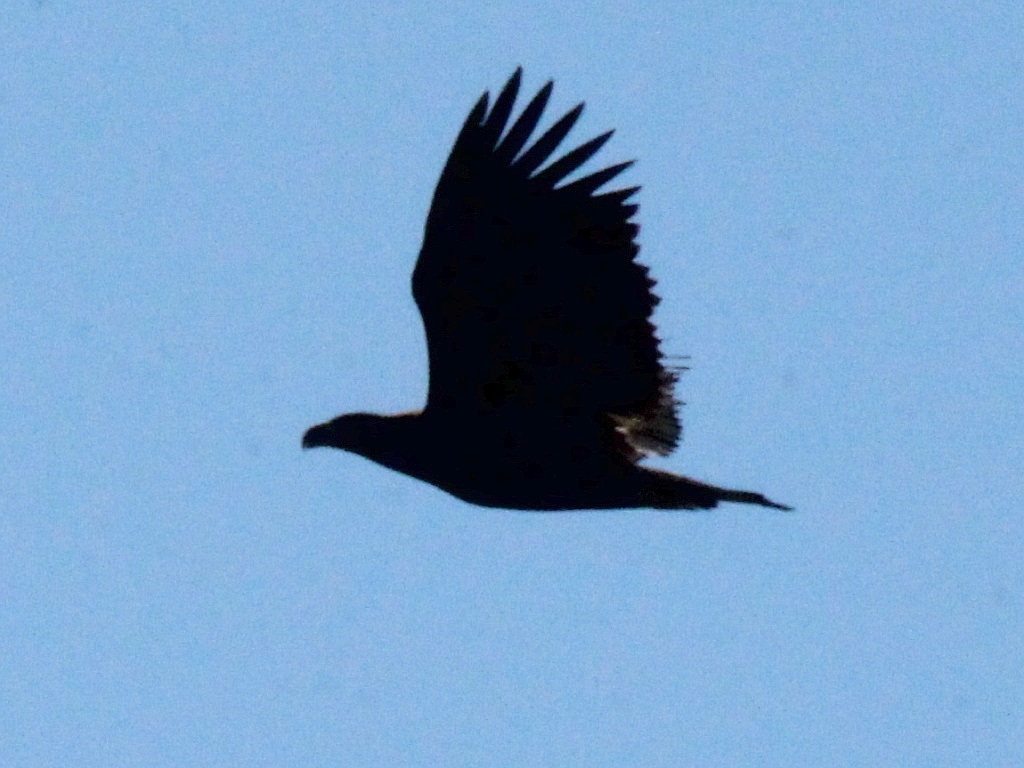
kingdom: Animalia
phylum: Chordata
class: Aves
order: Accipitriformes
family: Accipitridae
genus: Haliaeetus
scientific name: Haliaeetus albicilla
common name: White-tailed eagle
